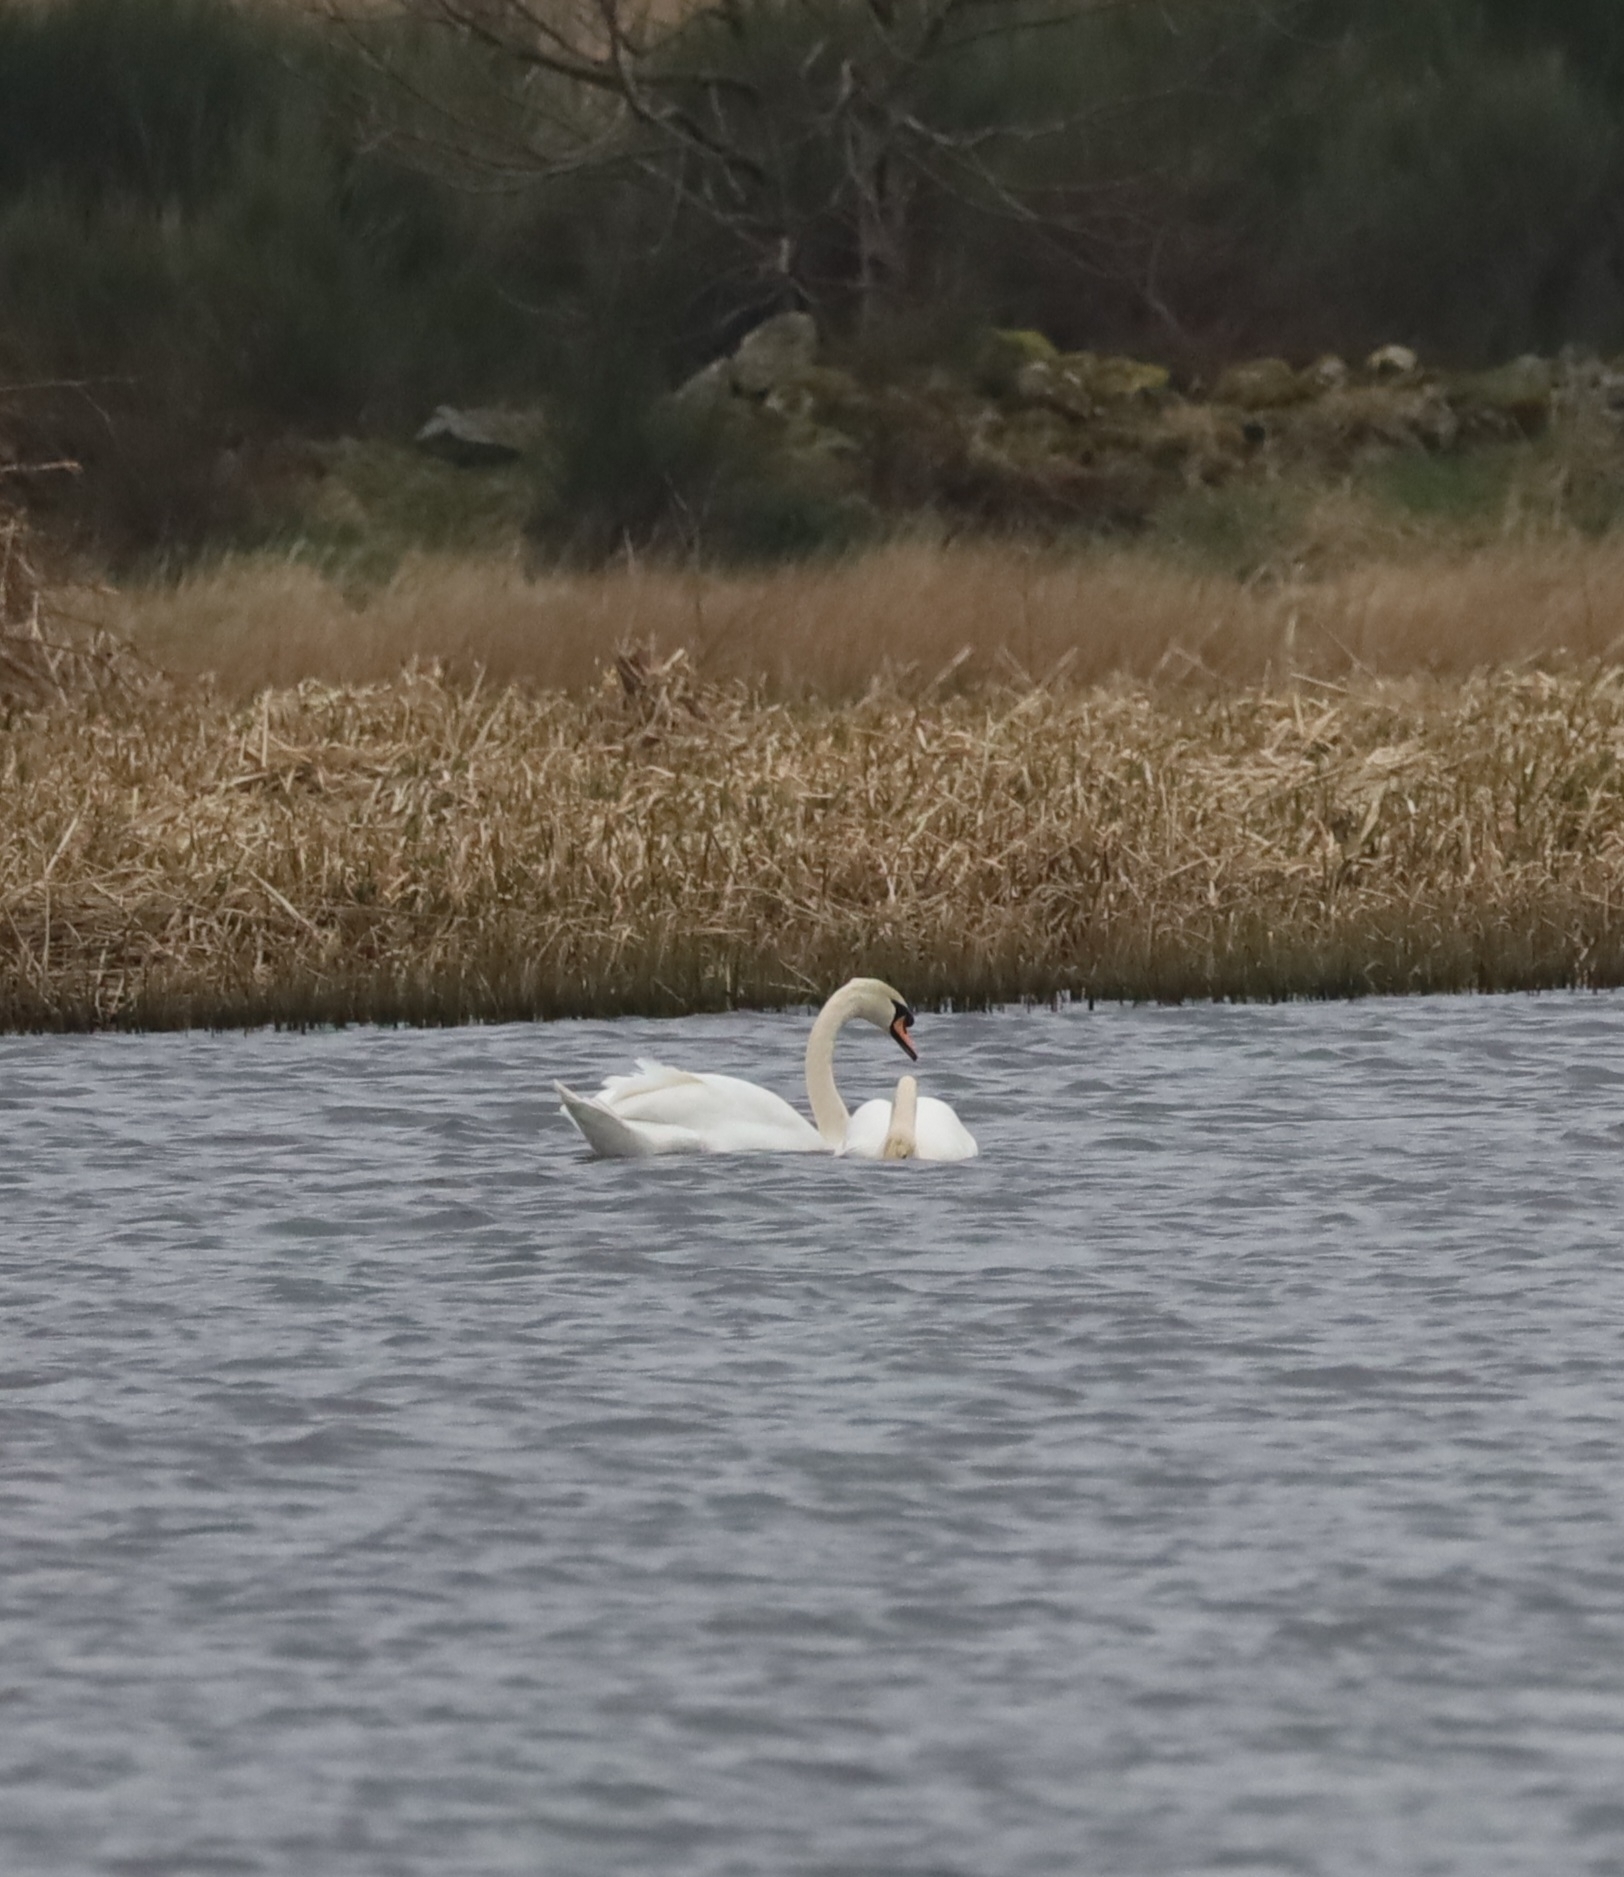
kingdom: Animalia
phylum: Chordata
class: Aves
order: Anseriformes
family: Anatidae
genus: Cygnus
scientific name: Cygnus olor
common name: Mute swan
